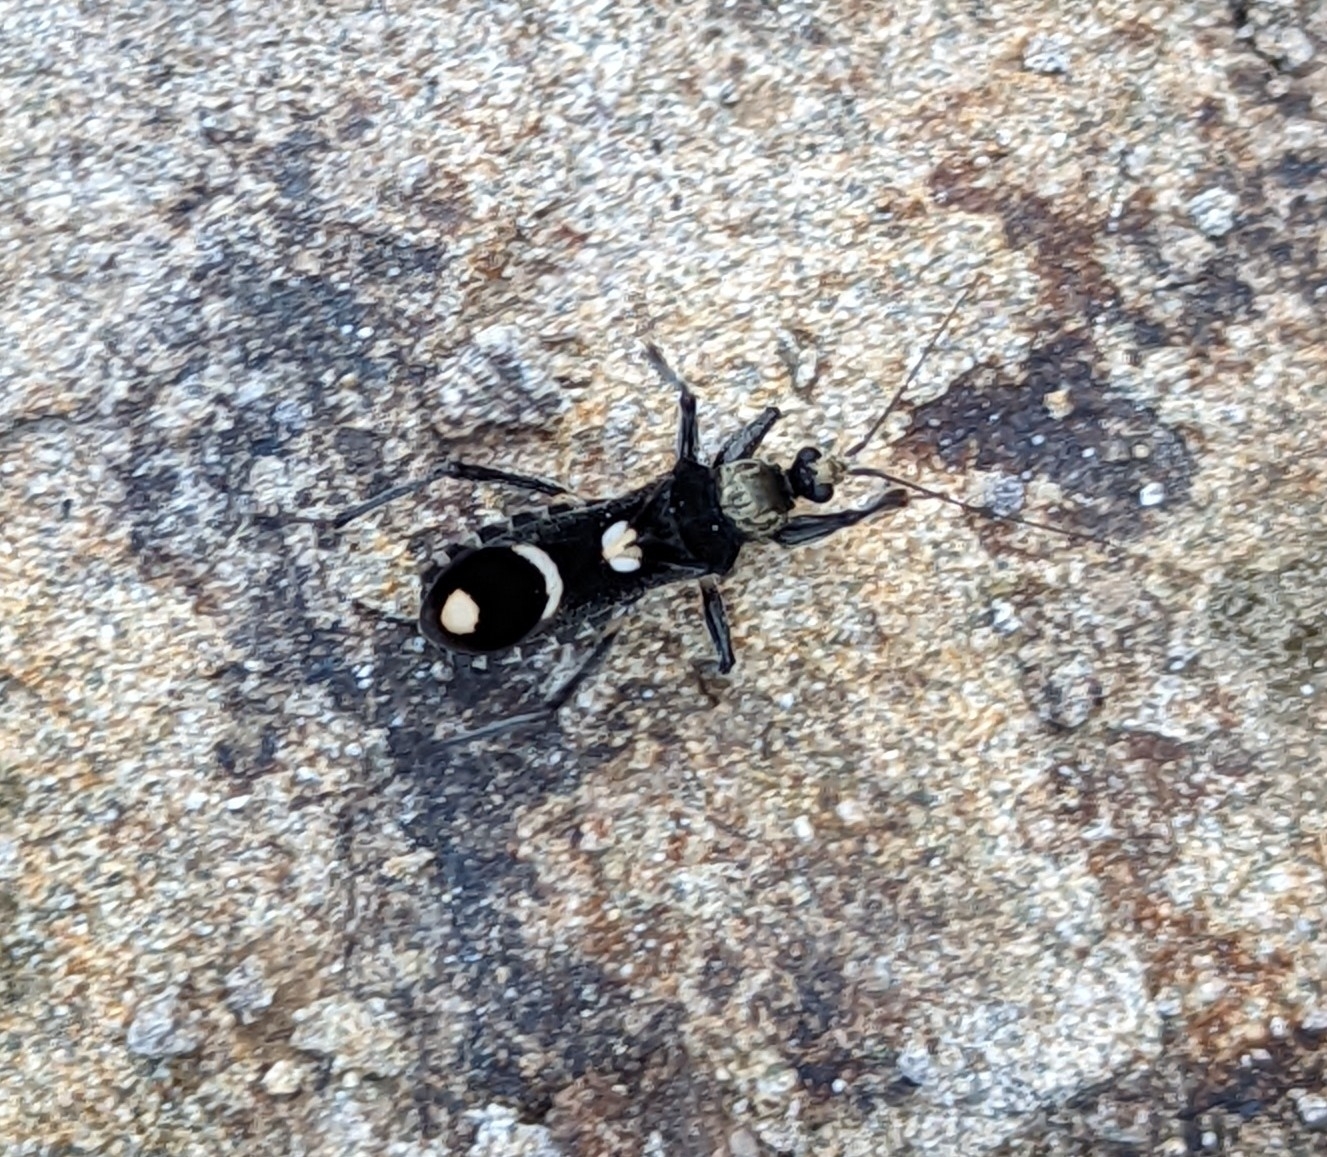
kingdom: Animalia
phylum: Arthropoda
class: Insecta
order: Hemiptera
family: Reduviidae
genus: Rasahus
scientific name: Rasahus arcuiger
